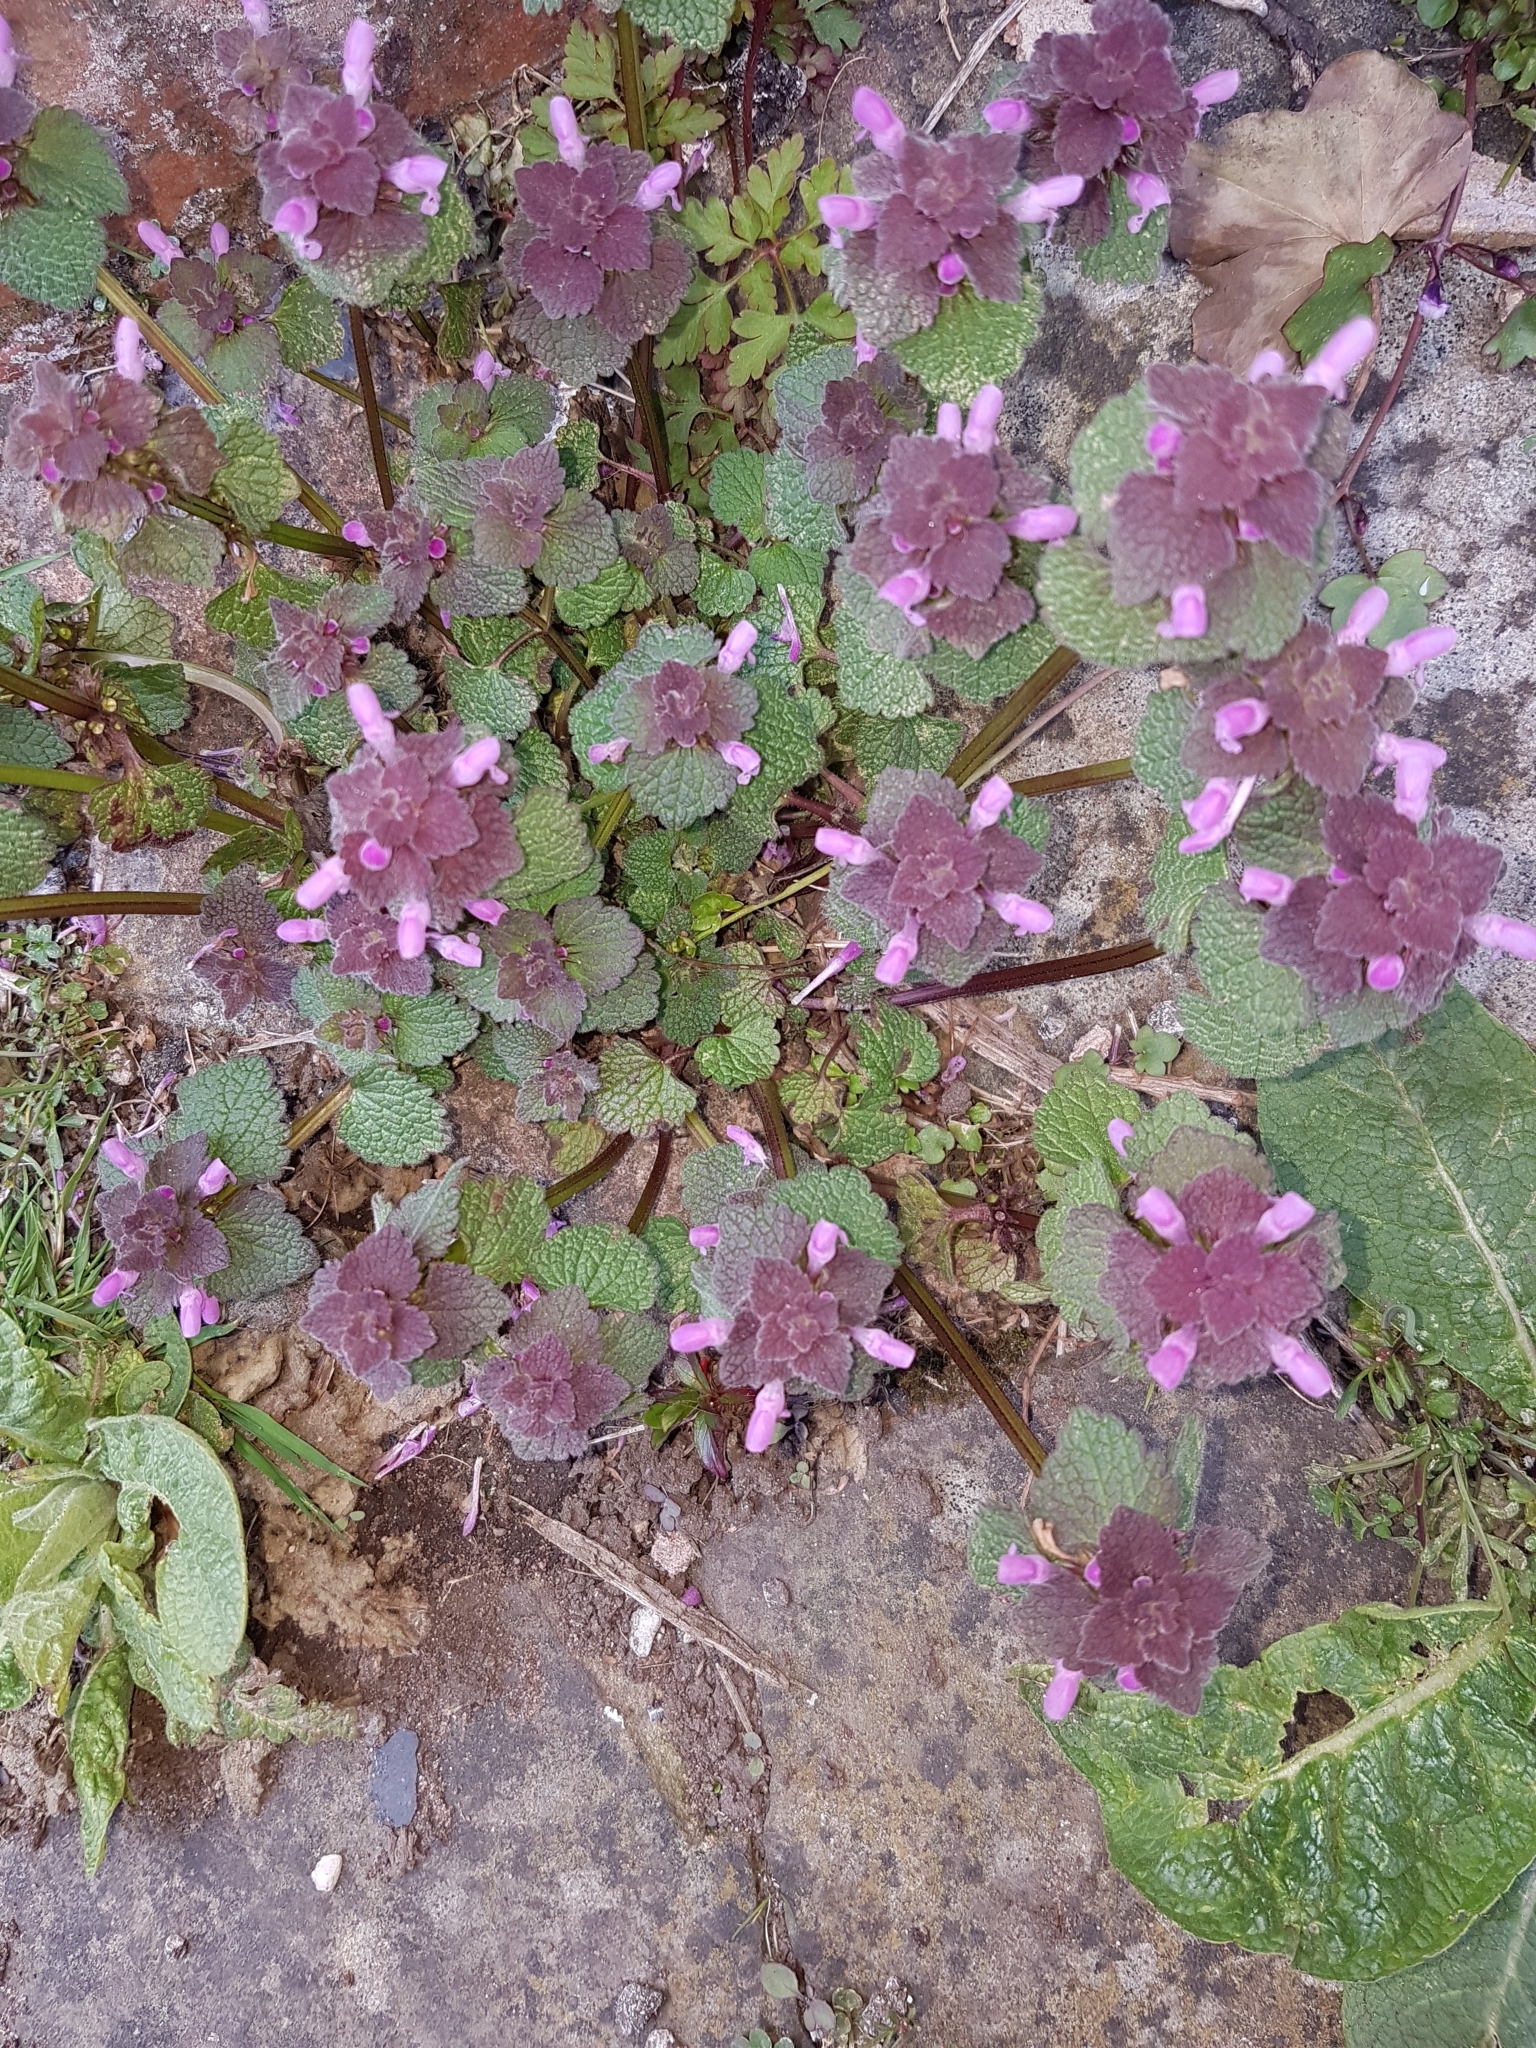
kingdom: Plantae
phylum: Tracheophyta
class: Magnoliopsida
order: Lamiales
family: Lamiaceae
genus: Lamium
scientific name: Lamium purpureum
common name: Red dead-nettle
